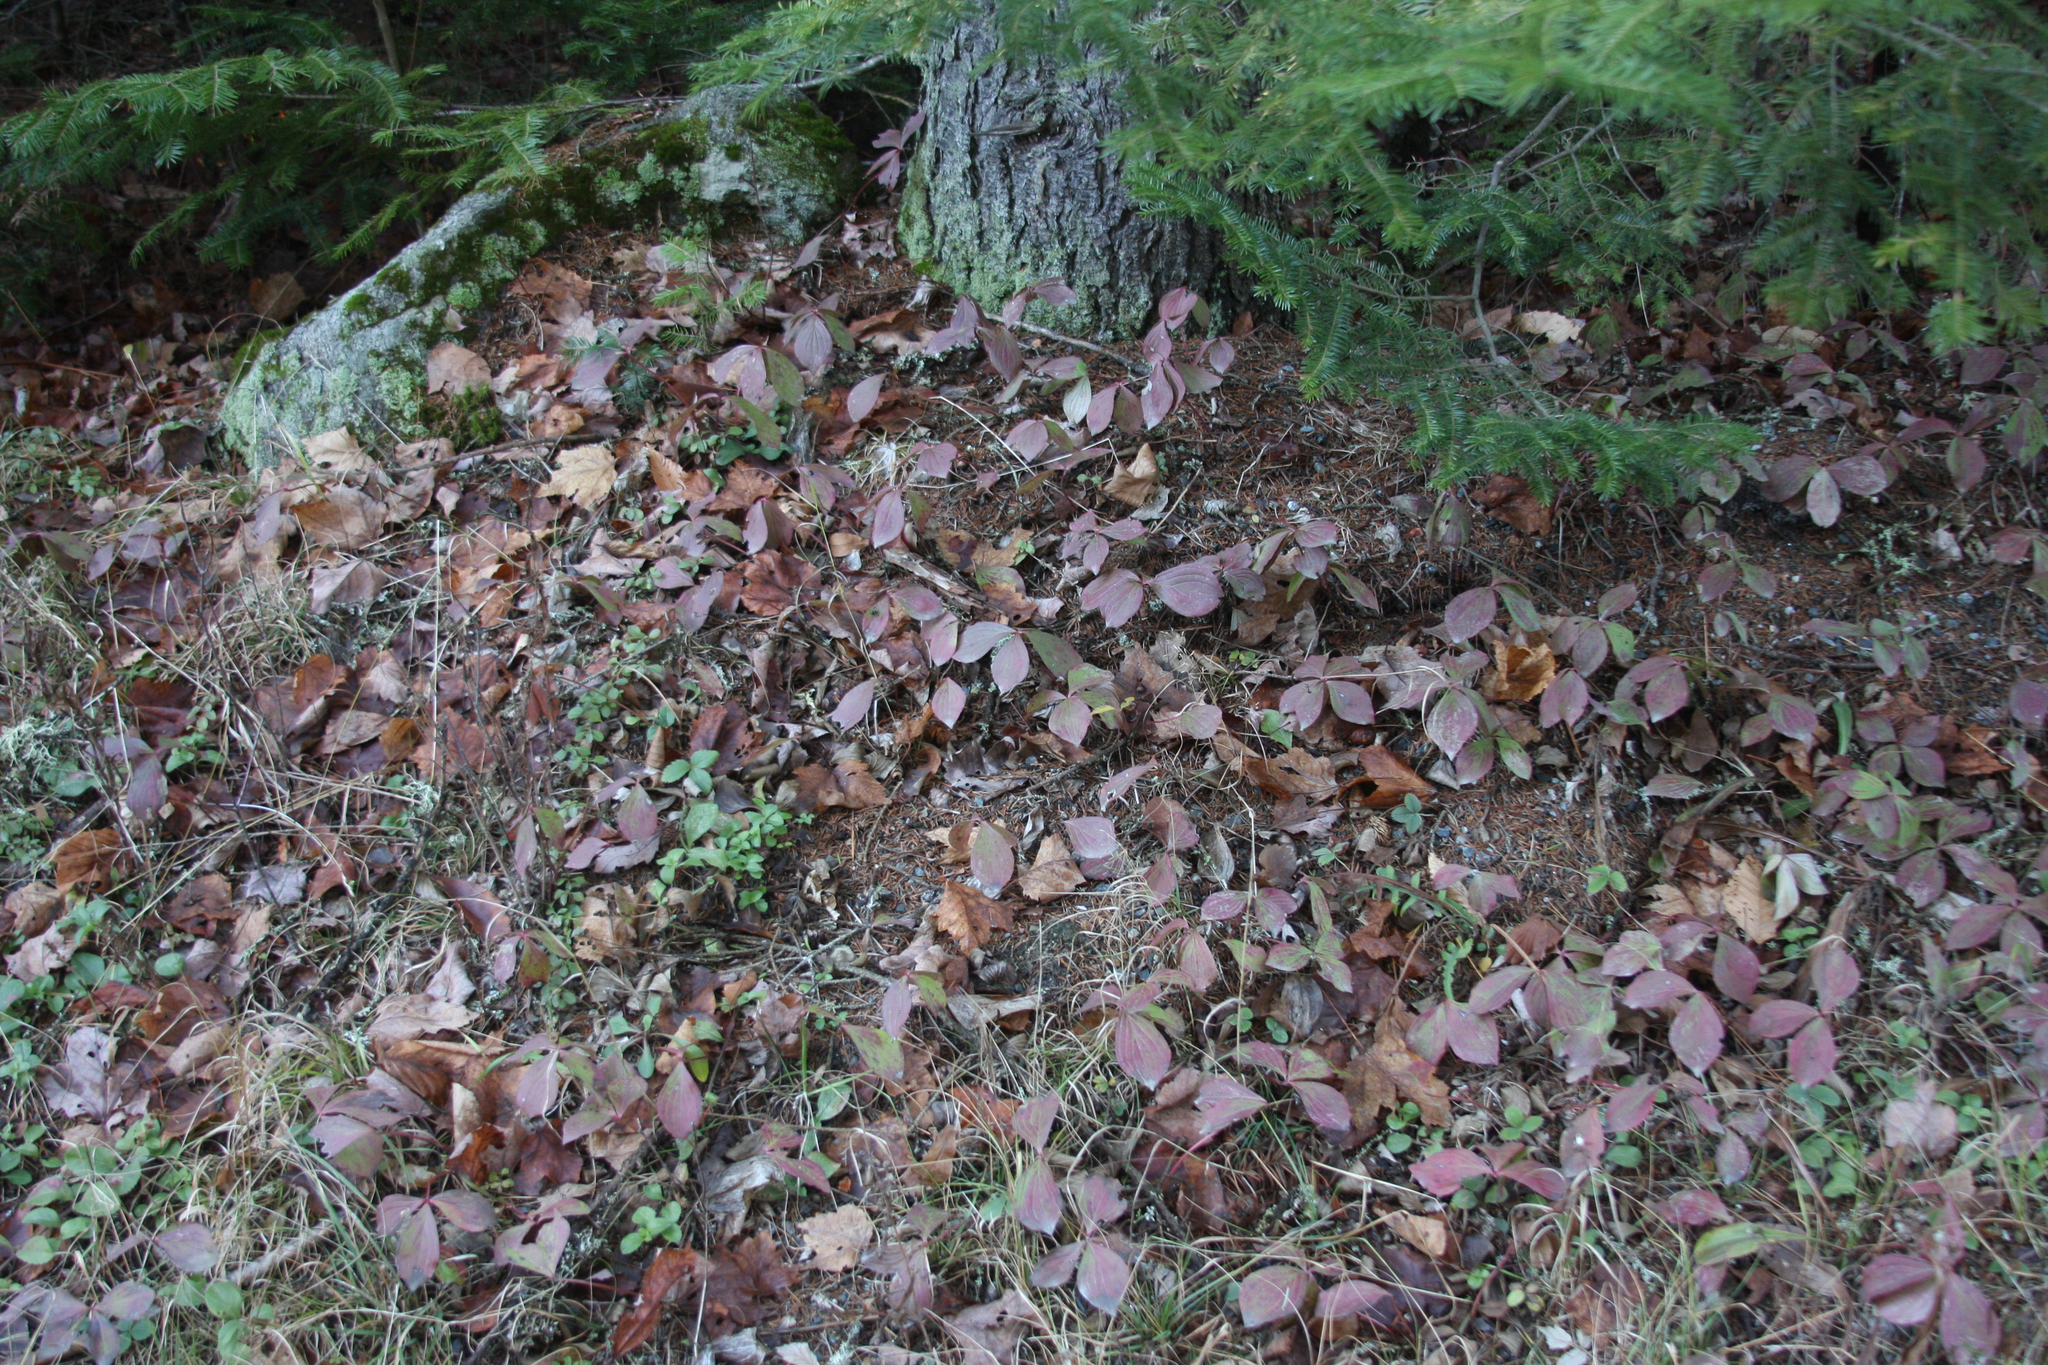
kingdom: Plantae
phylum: Tracheophyta
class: Magnoliopsida
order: Cornales
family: Cornaceae
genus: Cornus
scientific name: Cornus canadensis
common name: Creeping dogwood
